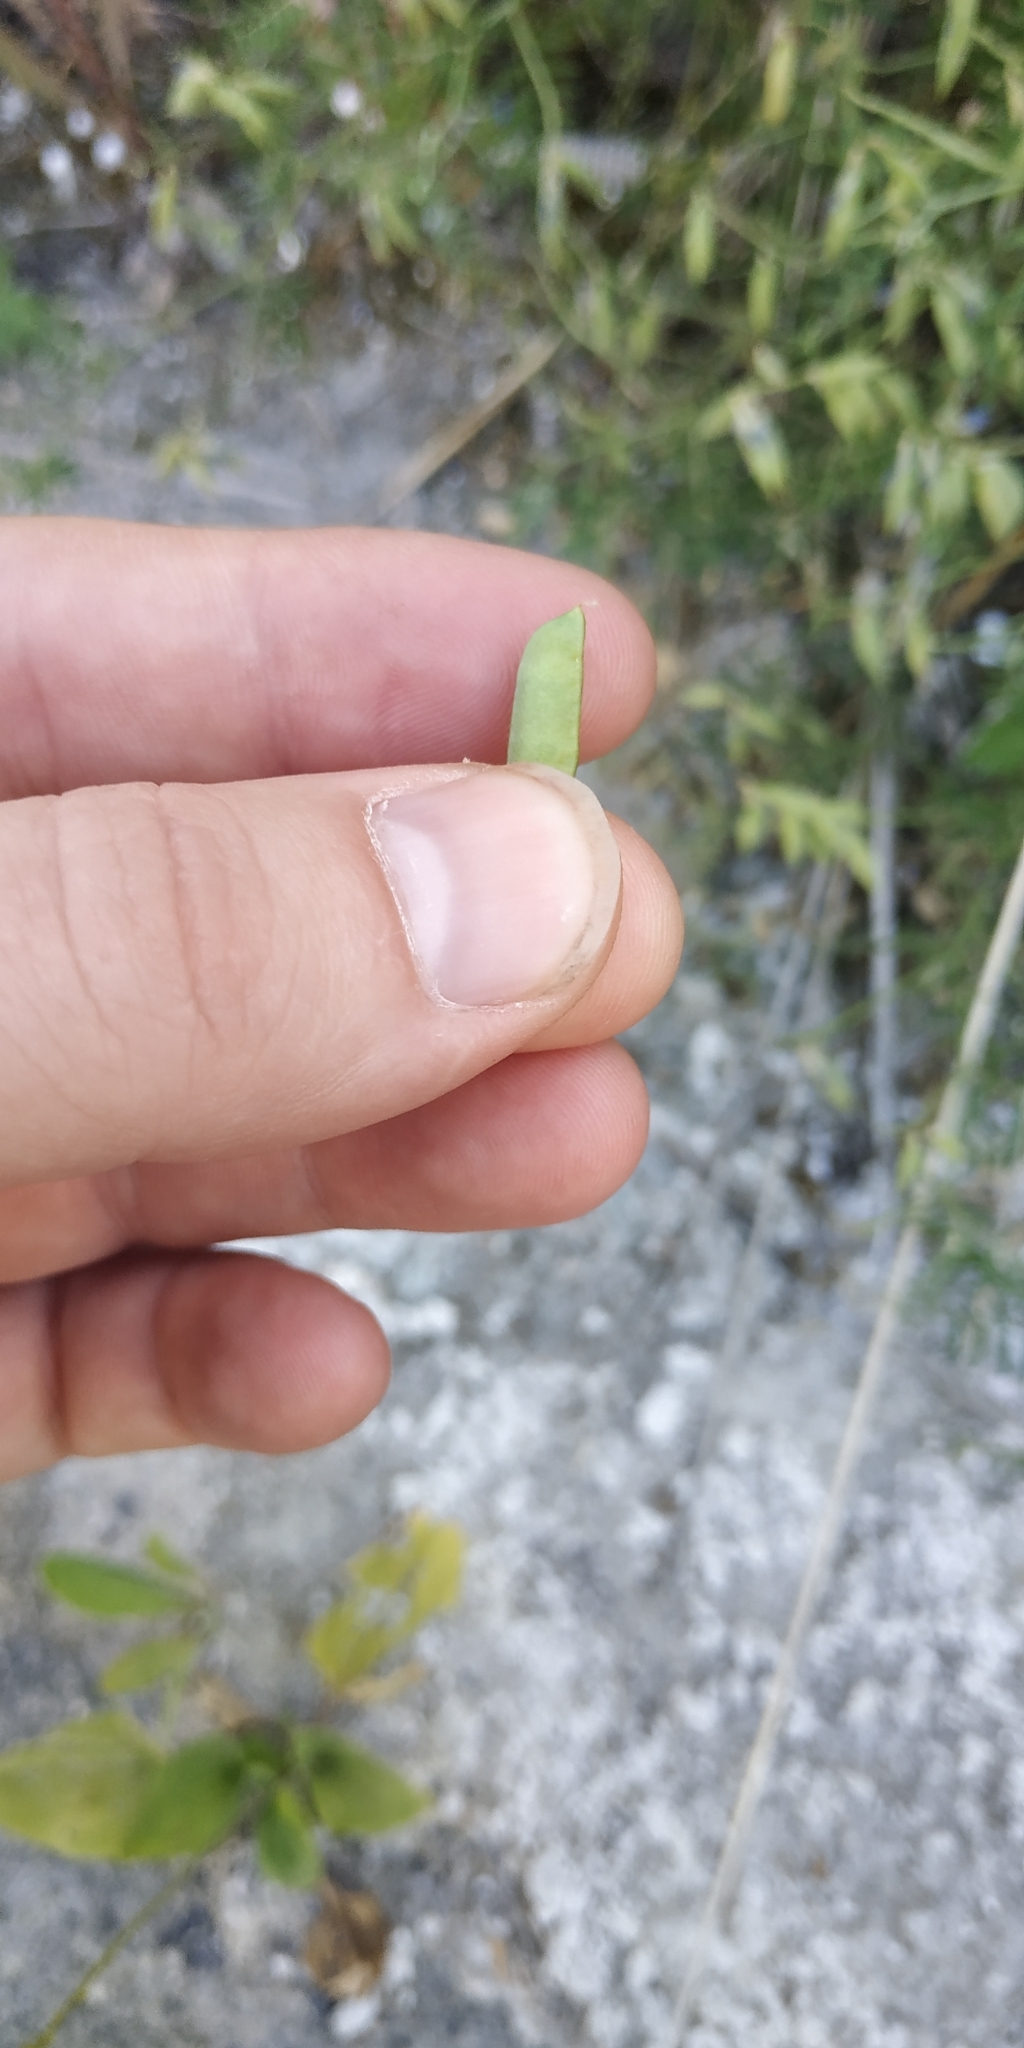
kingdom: Plantae
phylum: Tracheophyta
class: Magnoliopsida
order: Fabales
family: Fabaceae
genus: Vicia
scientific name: Vicia cracca
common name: Bird vetch
